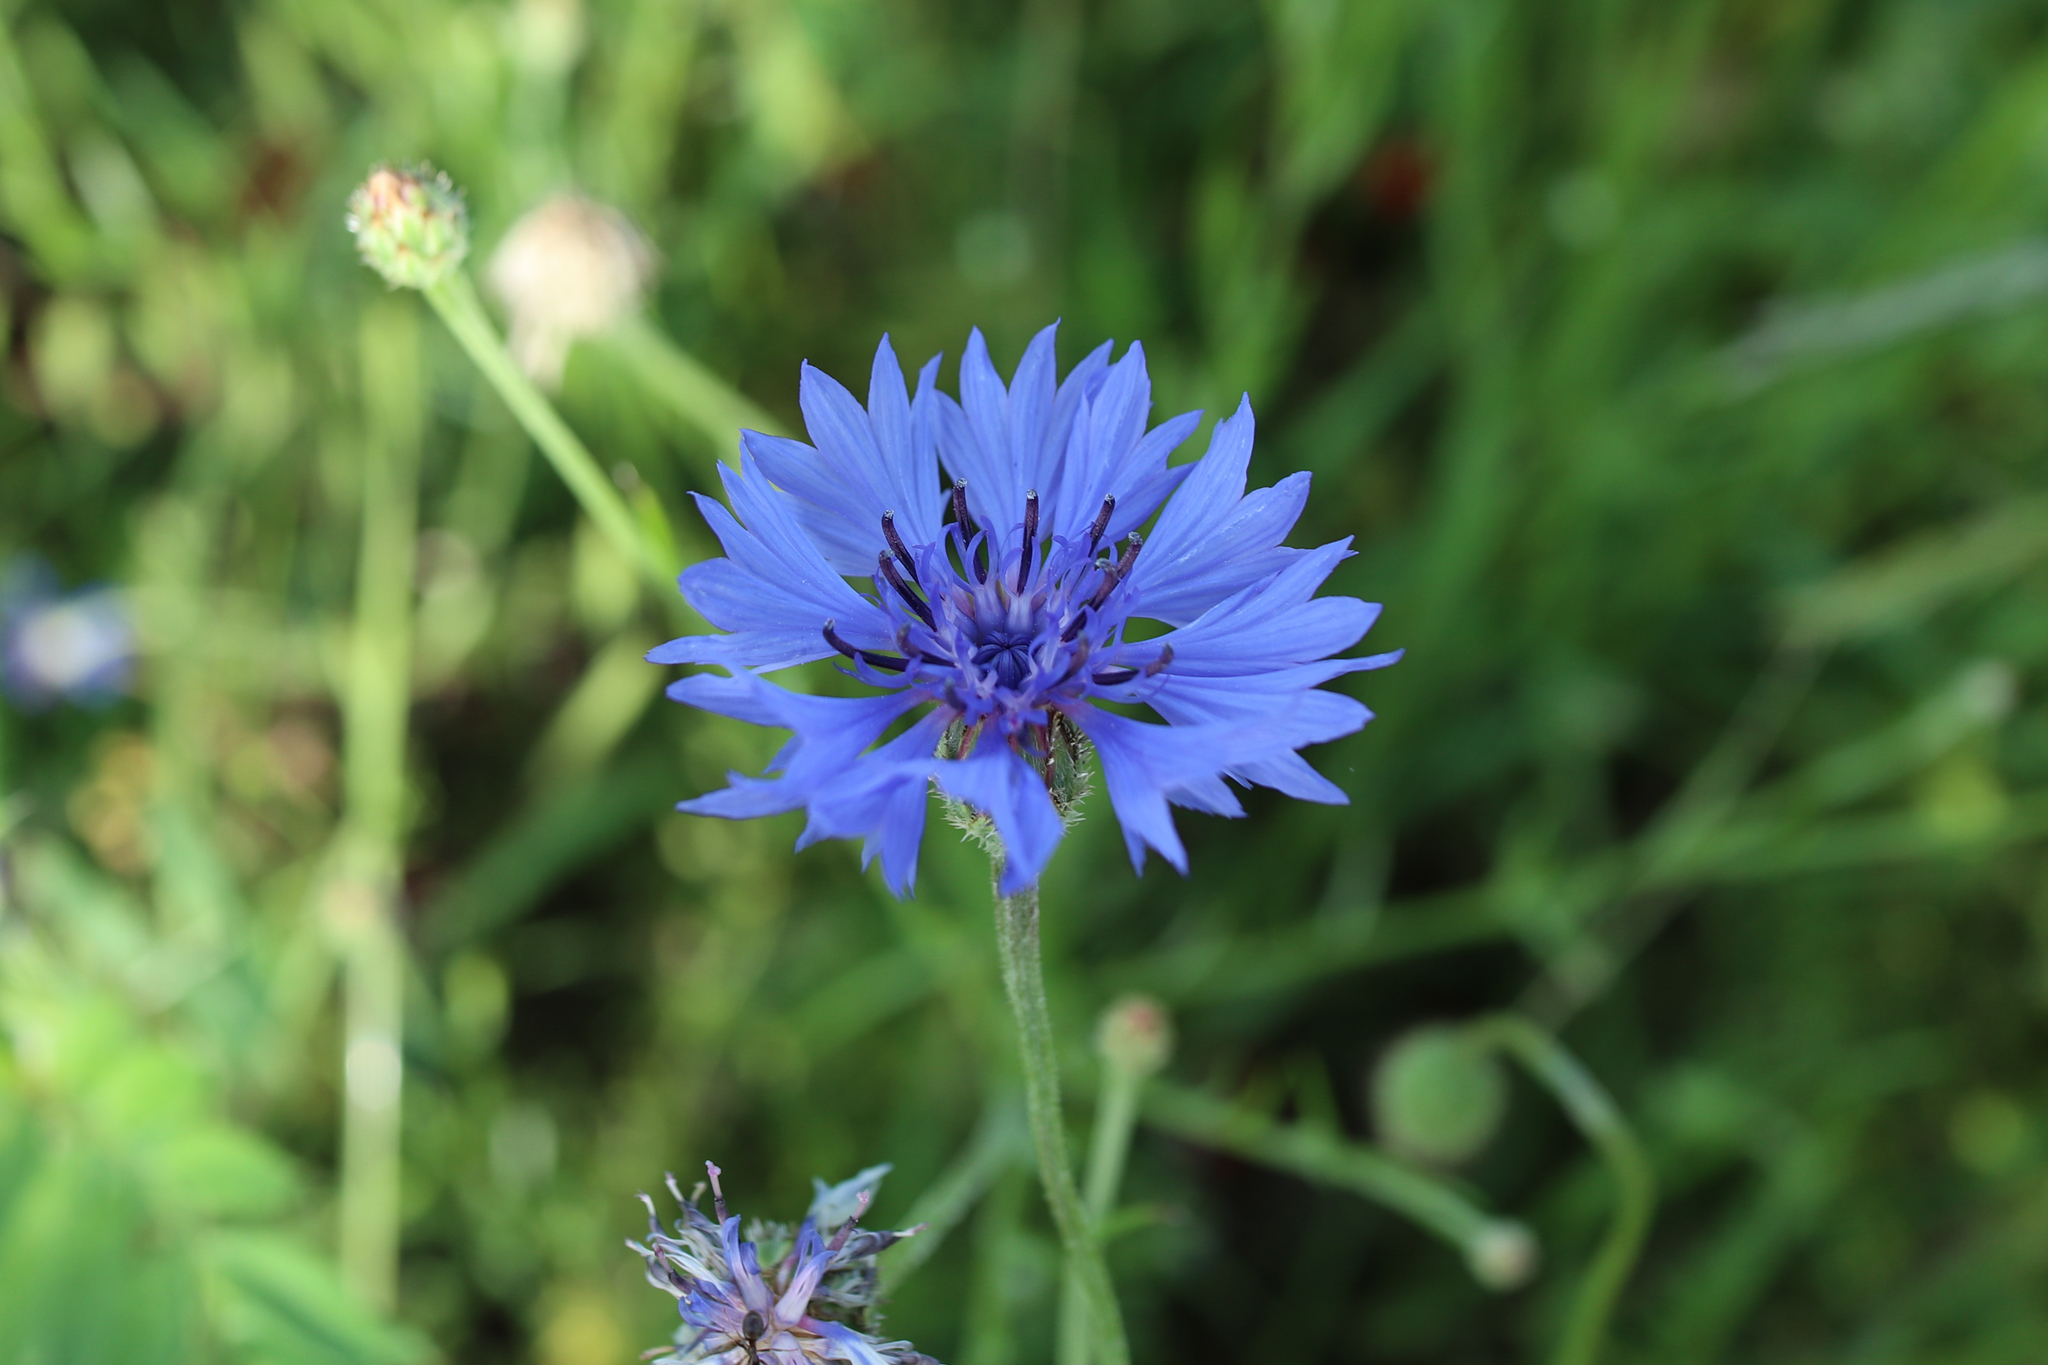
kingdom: Plantae
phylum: Tracheophyta
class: Magnoliopsida
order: Asterales
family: Asteraceae
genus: Centaurea
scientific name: Centaurea cyanus
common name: Cornflower
